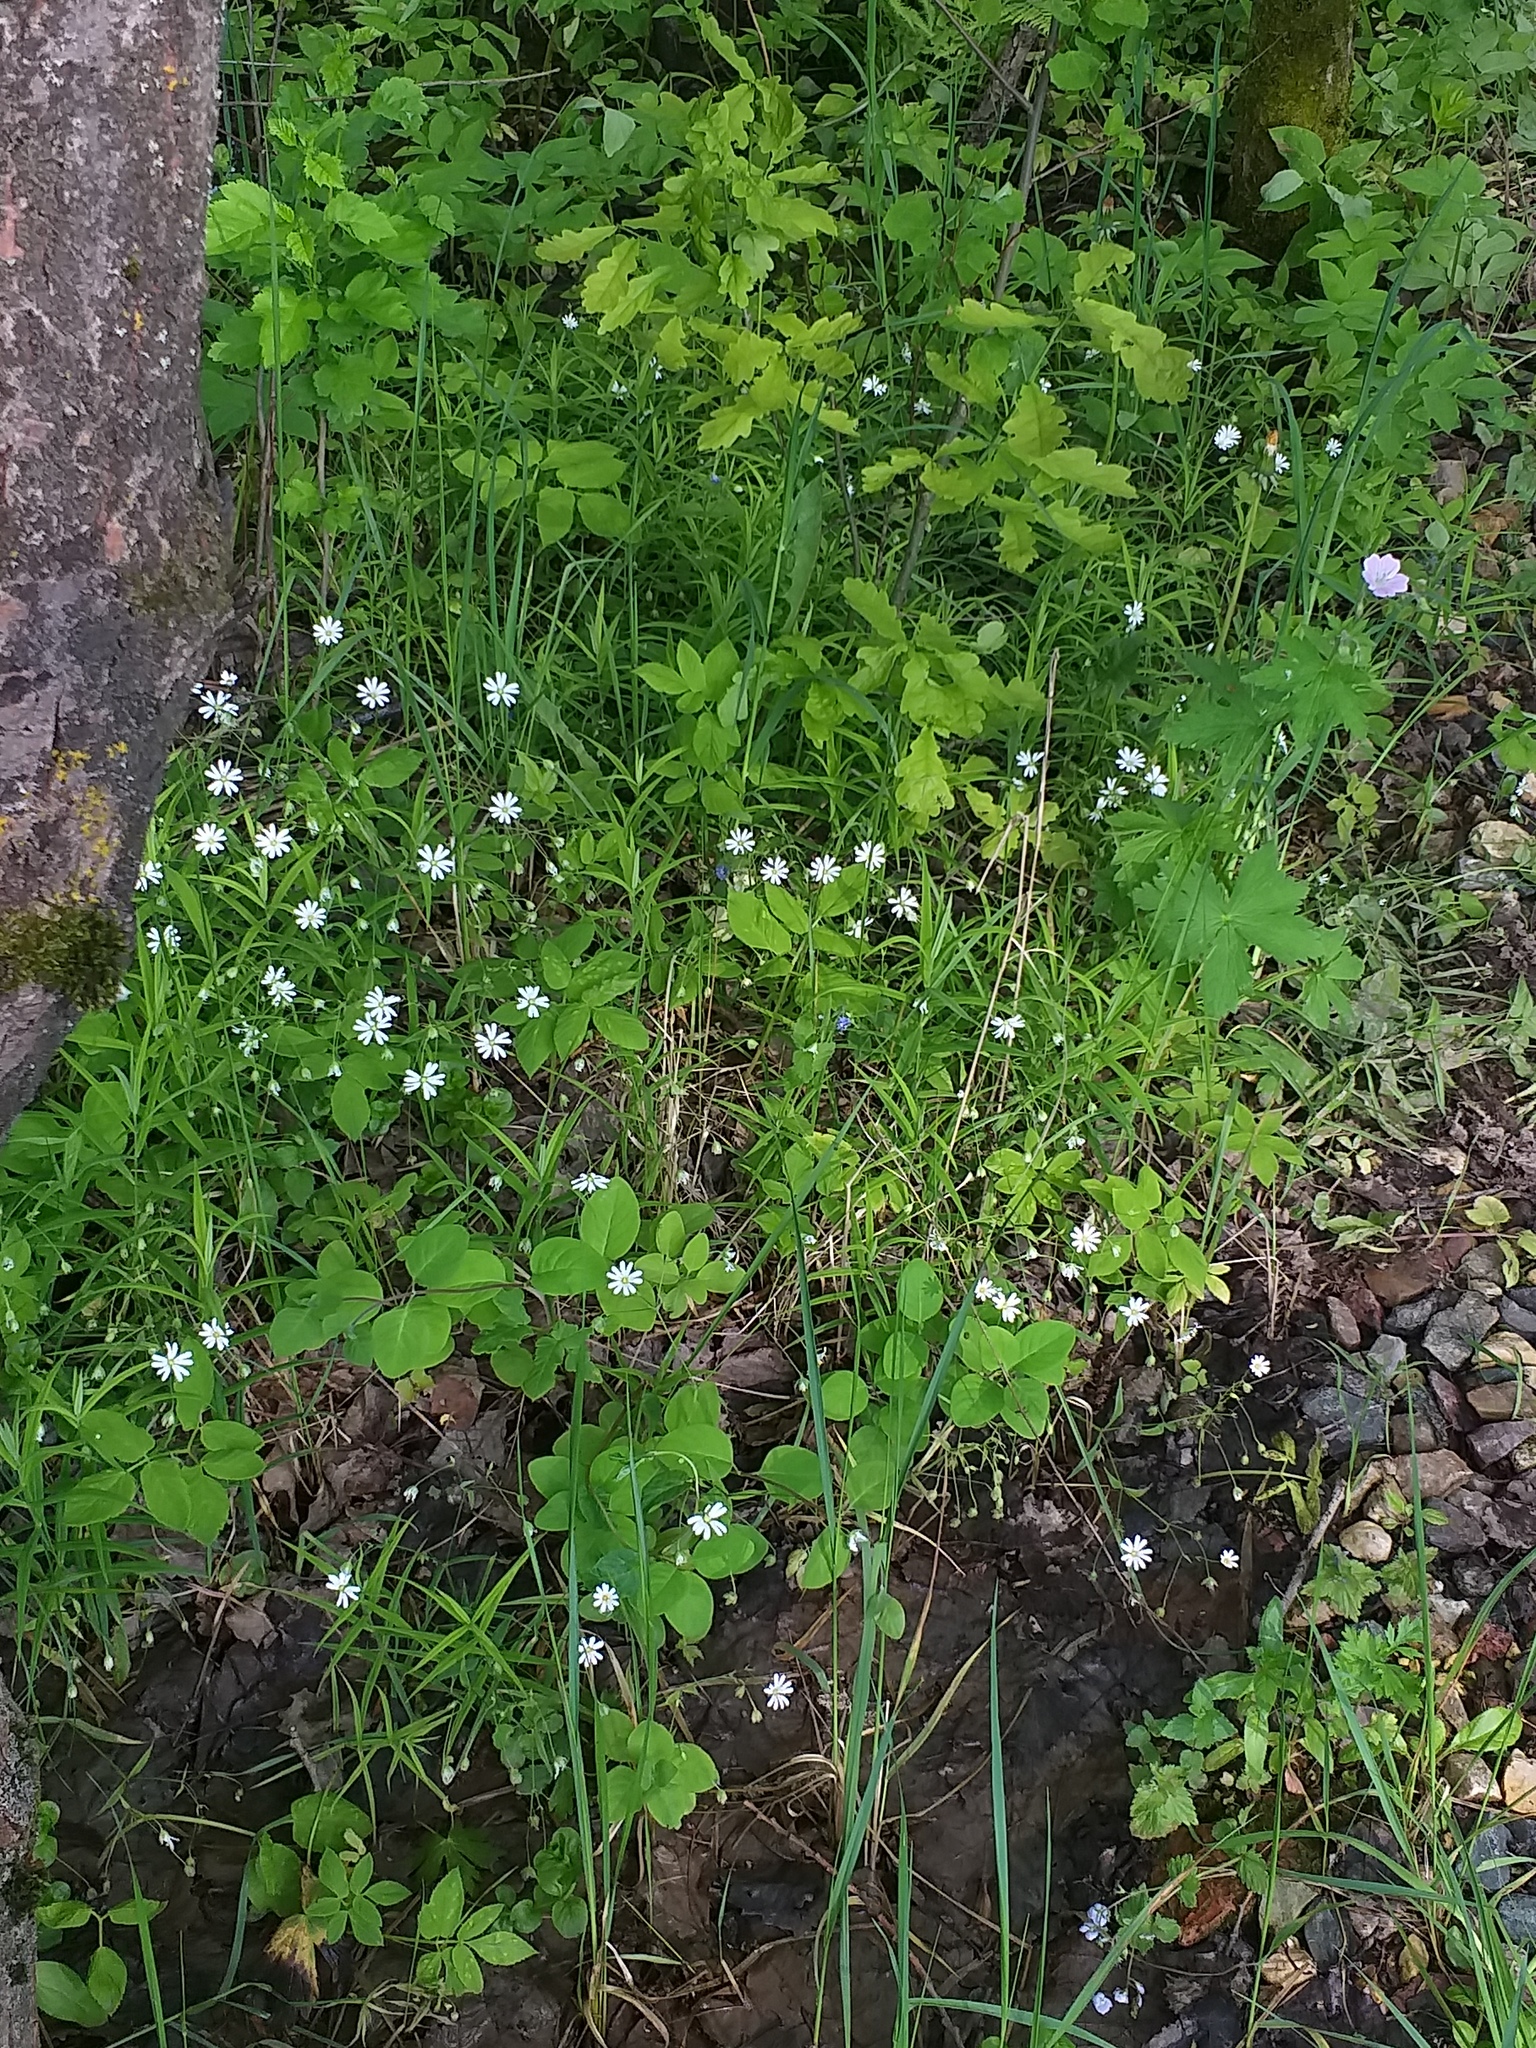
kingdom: Plantae
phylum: Tracheophyta
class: Magnoliopsida
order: Caryophyllales
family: Caryophyllaceae
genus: Rabelera
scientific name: Rabelera holostea
